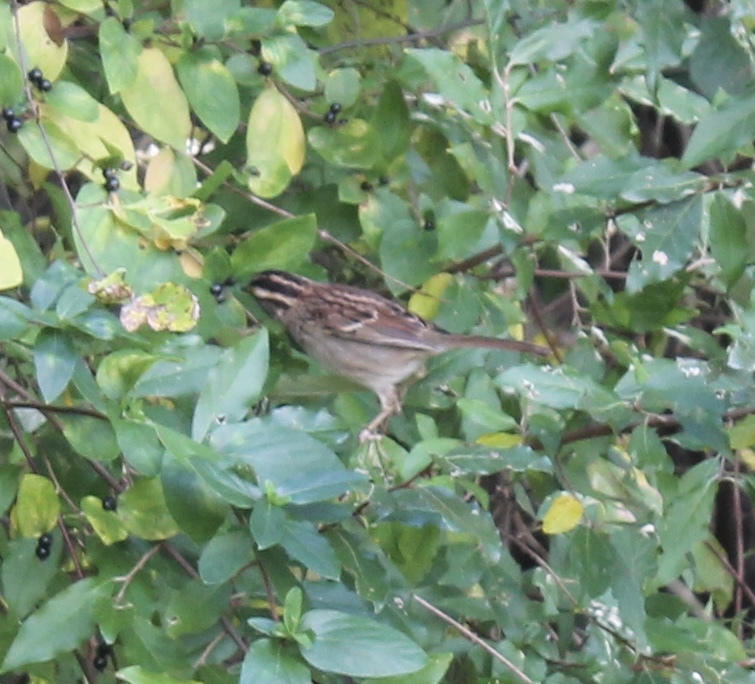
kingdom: Animalia
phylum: Chordata
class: Aves
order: Passeriformes
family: Passerellidae
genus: Zonotrichia
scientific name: Zonotrichia albicollis
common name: White-throated sparrow
